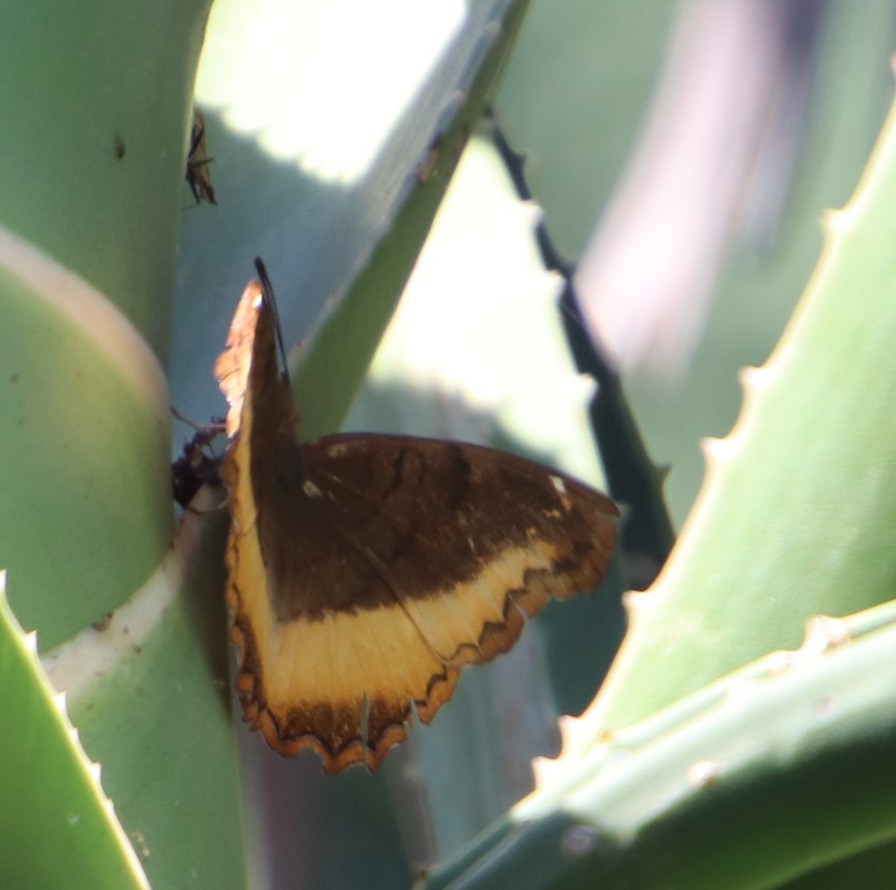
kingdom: Animalia
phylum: Arthropoda
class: Insecta
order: Lepidoptera
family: Nymphalidae
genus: Eurytela
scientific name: Eurytela dryope
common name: Golden piper
